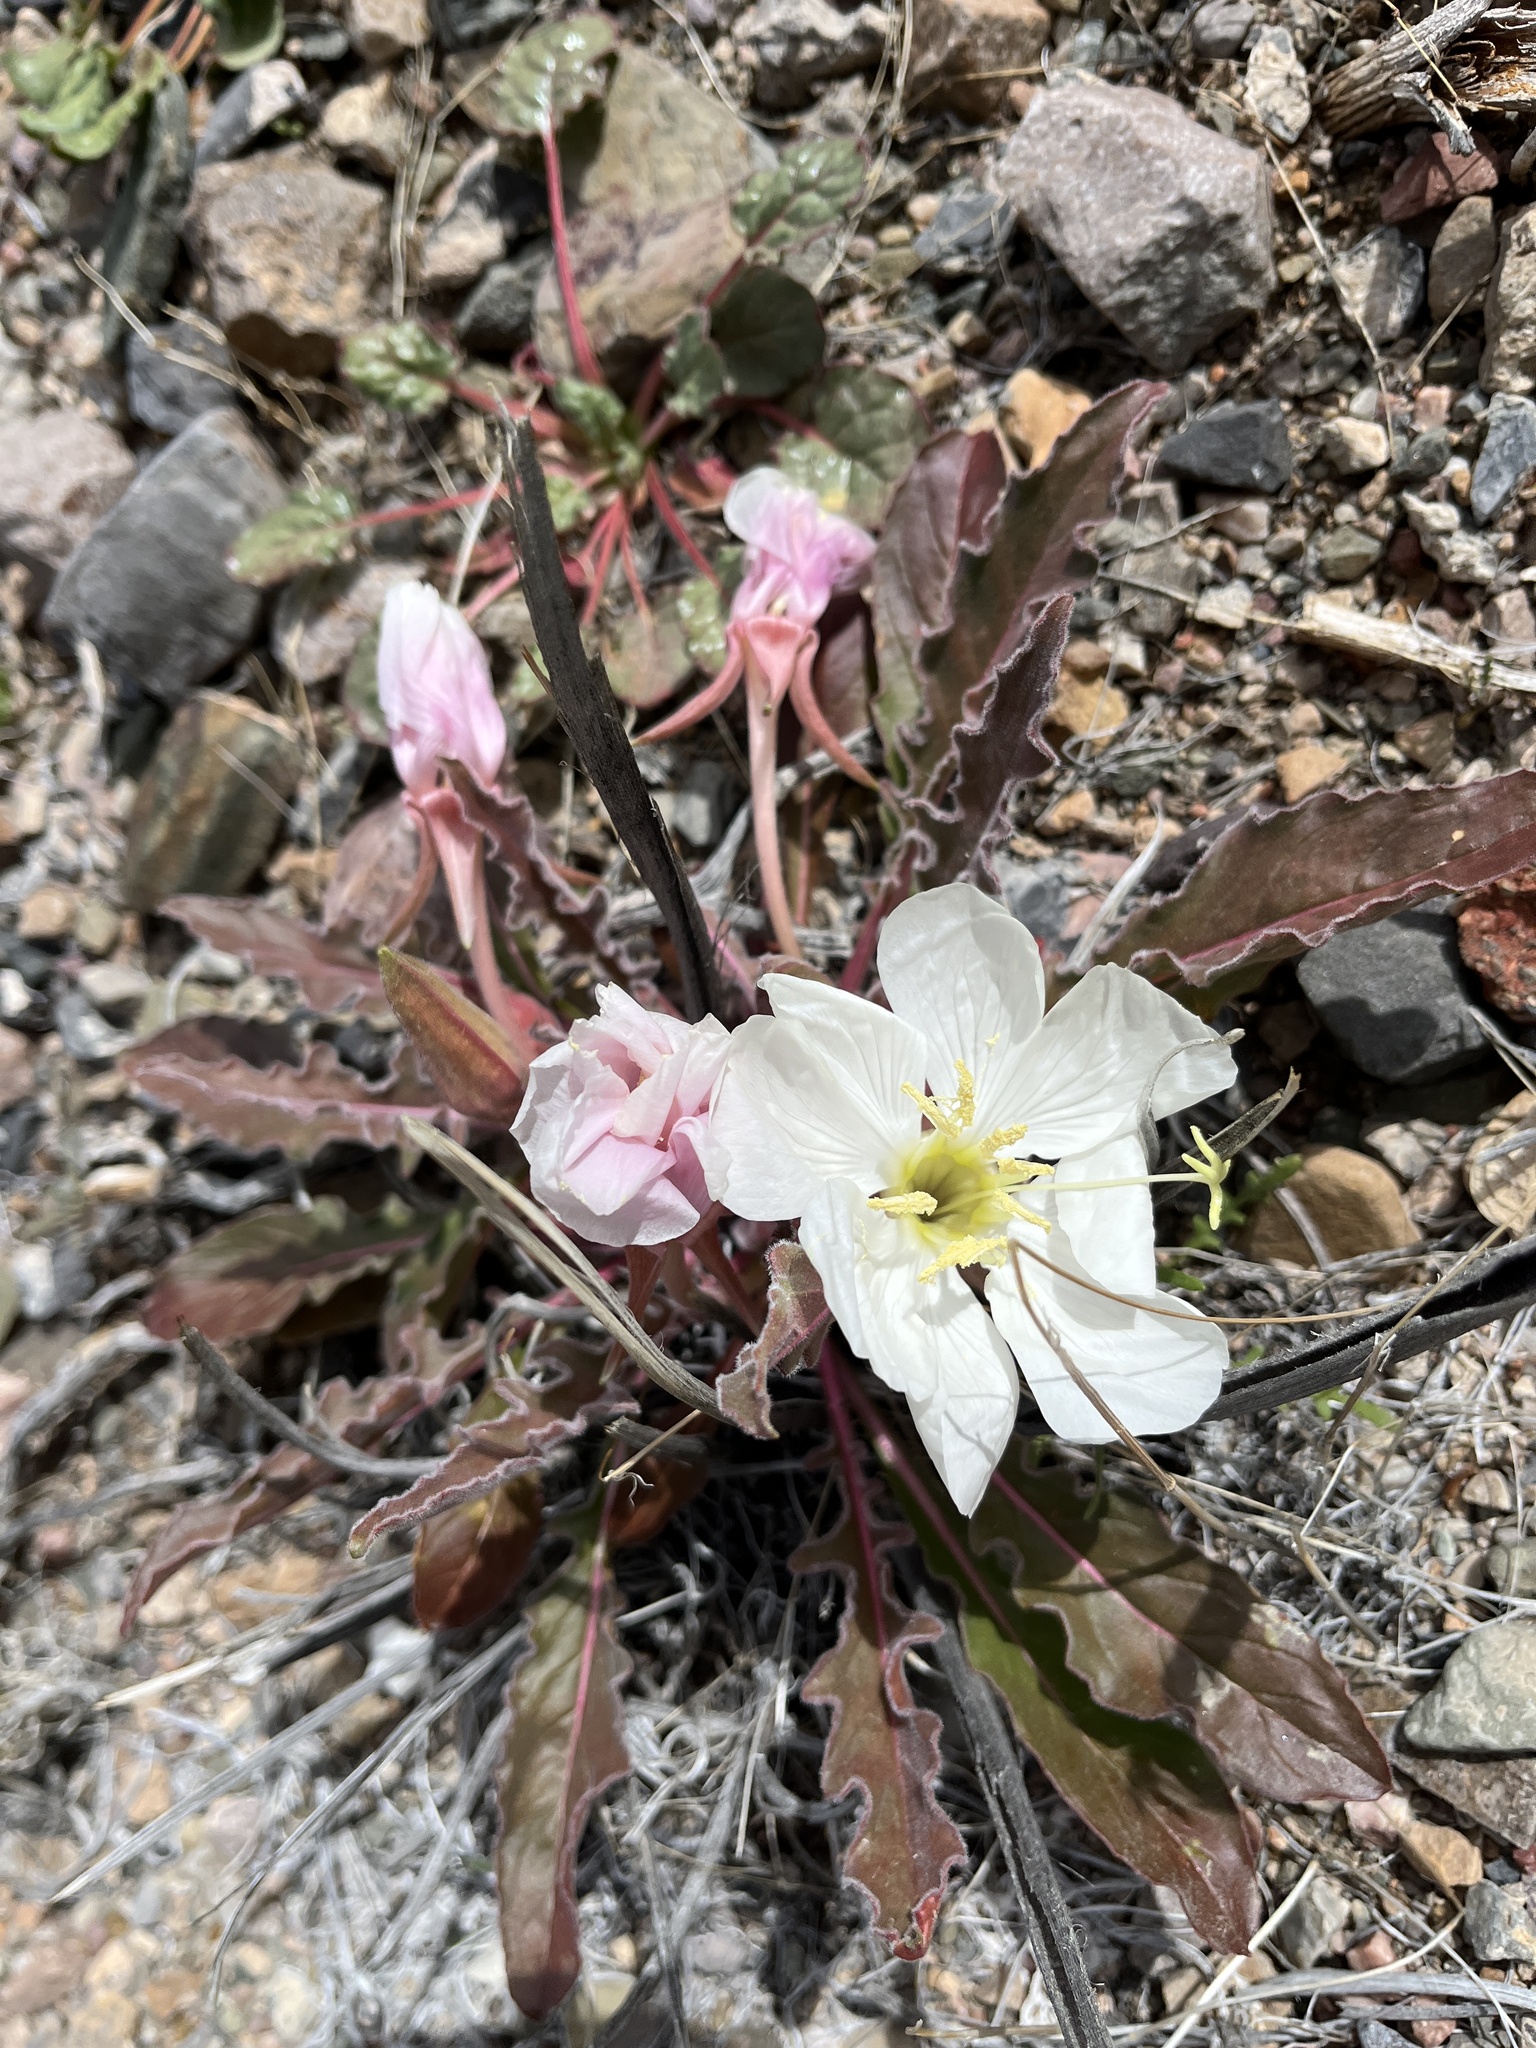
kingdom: Plantae
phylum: Tracheophyta
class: Magnoliopsida
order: Myrtales
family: Onagraceae
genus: Oenothera
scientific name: Oenothera cespitosa
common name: Tufted evening-primrose
